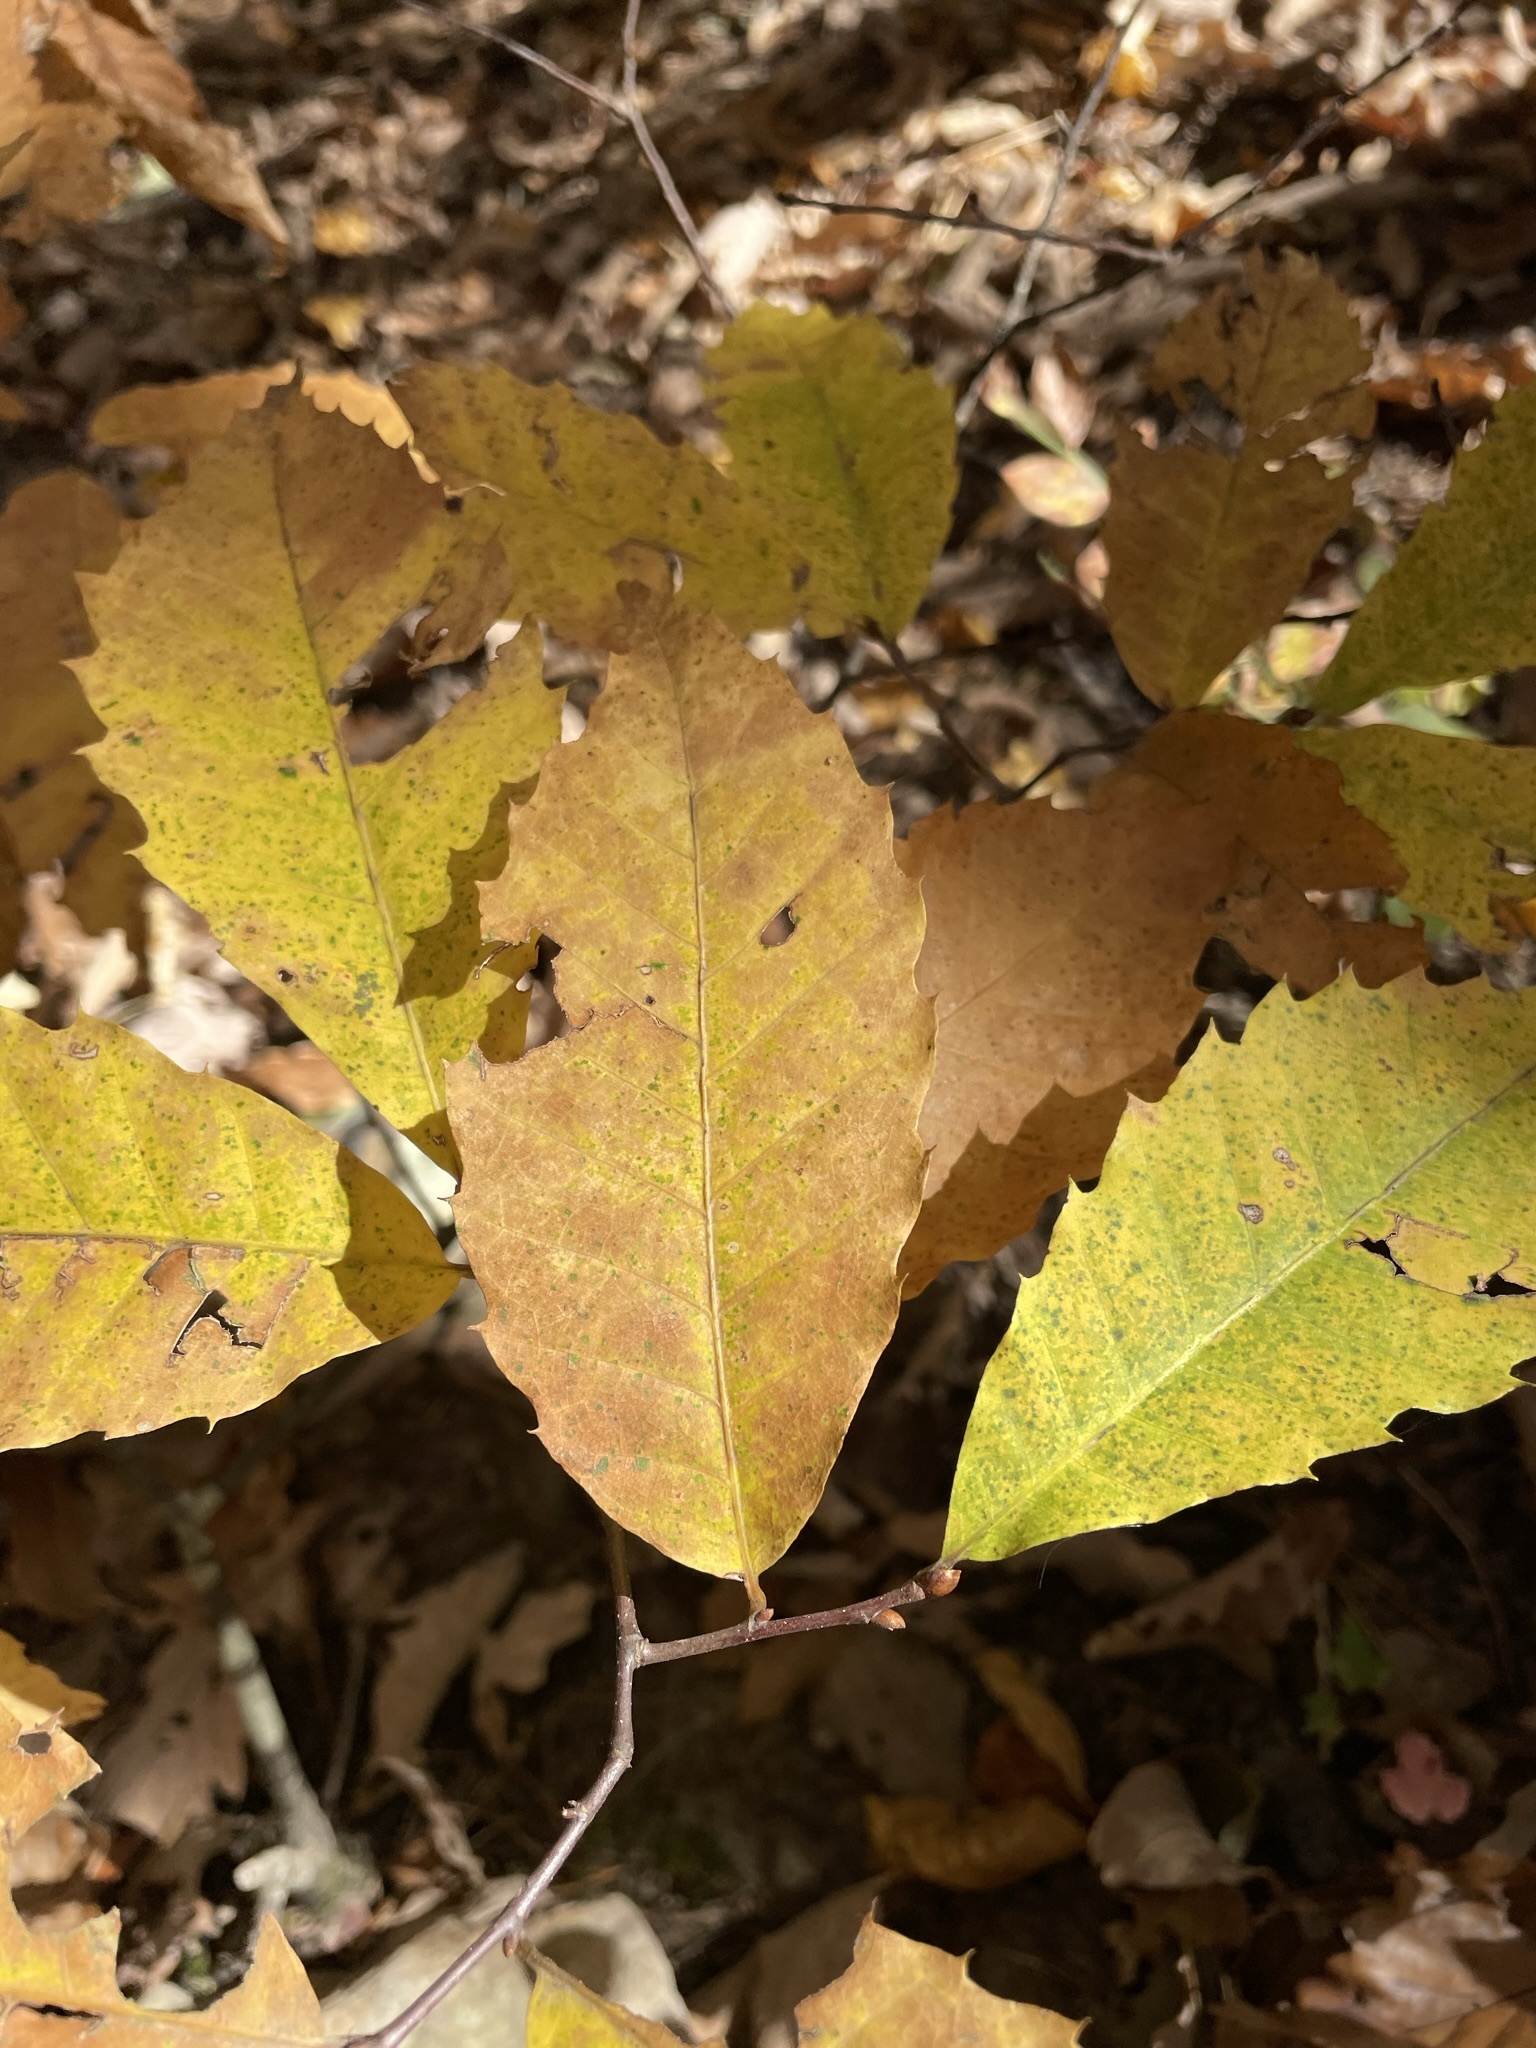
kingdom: Plantae
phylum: Tracheophyta
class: Magnoliopsida
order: Fagales
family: Fagaceae
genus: Castanea
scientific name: Castanea dentata
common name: American chestnut
